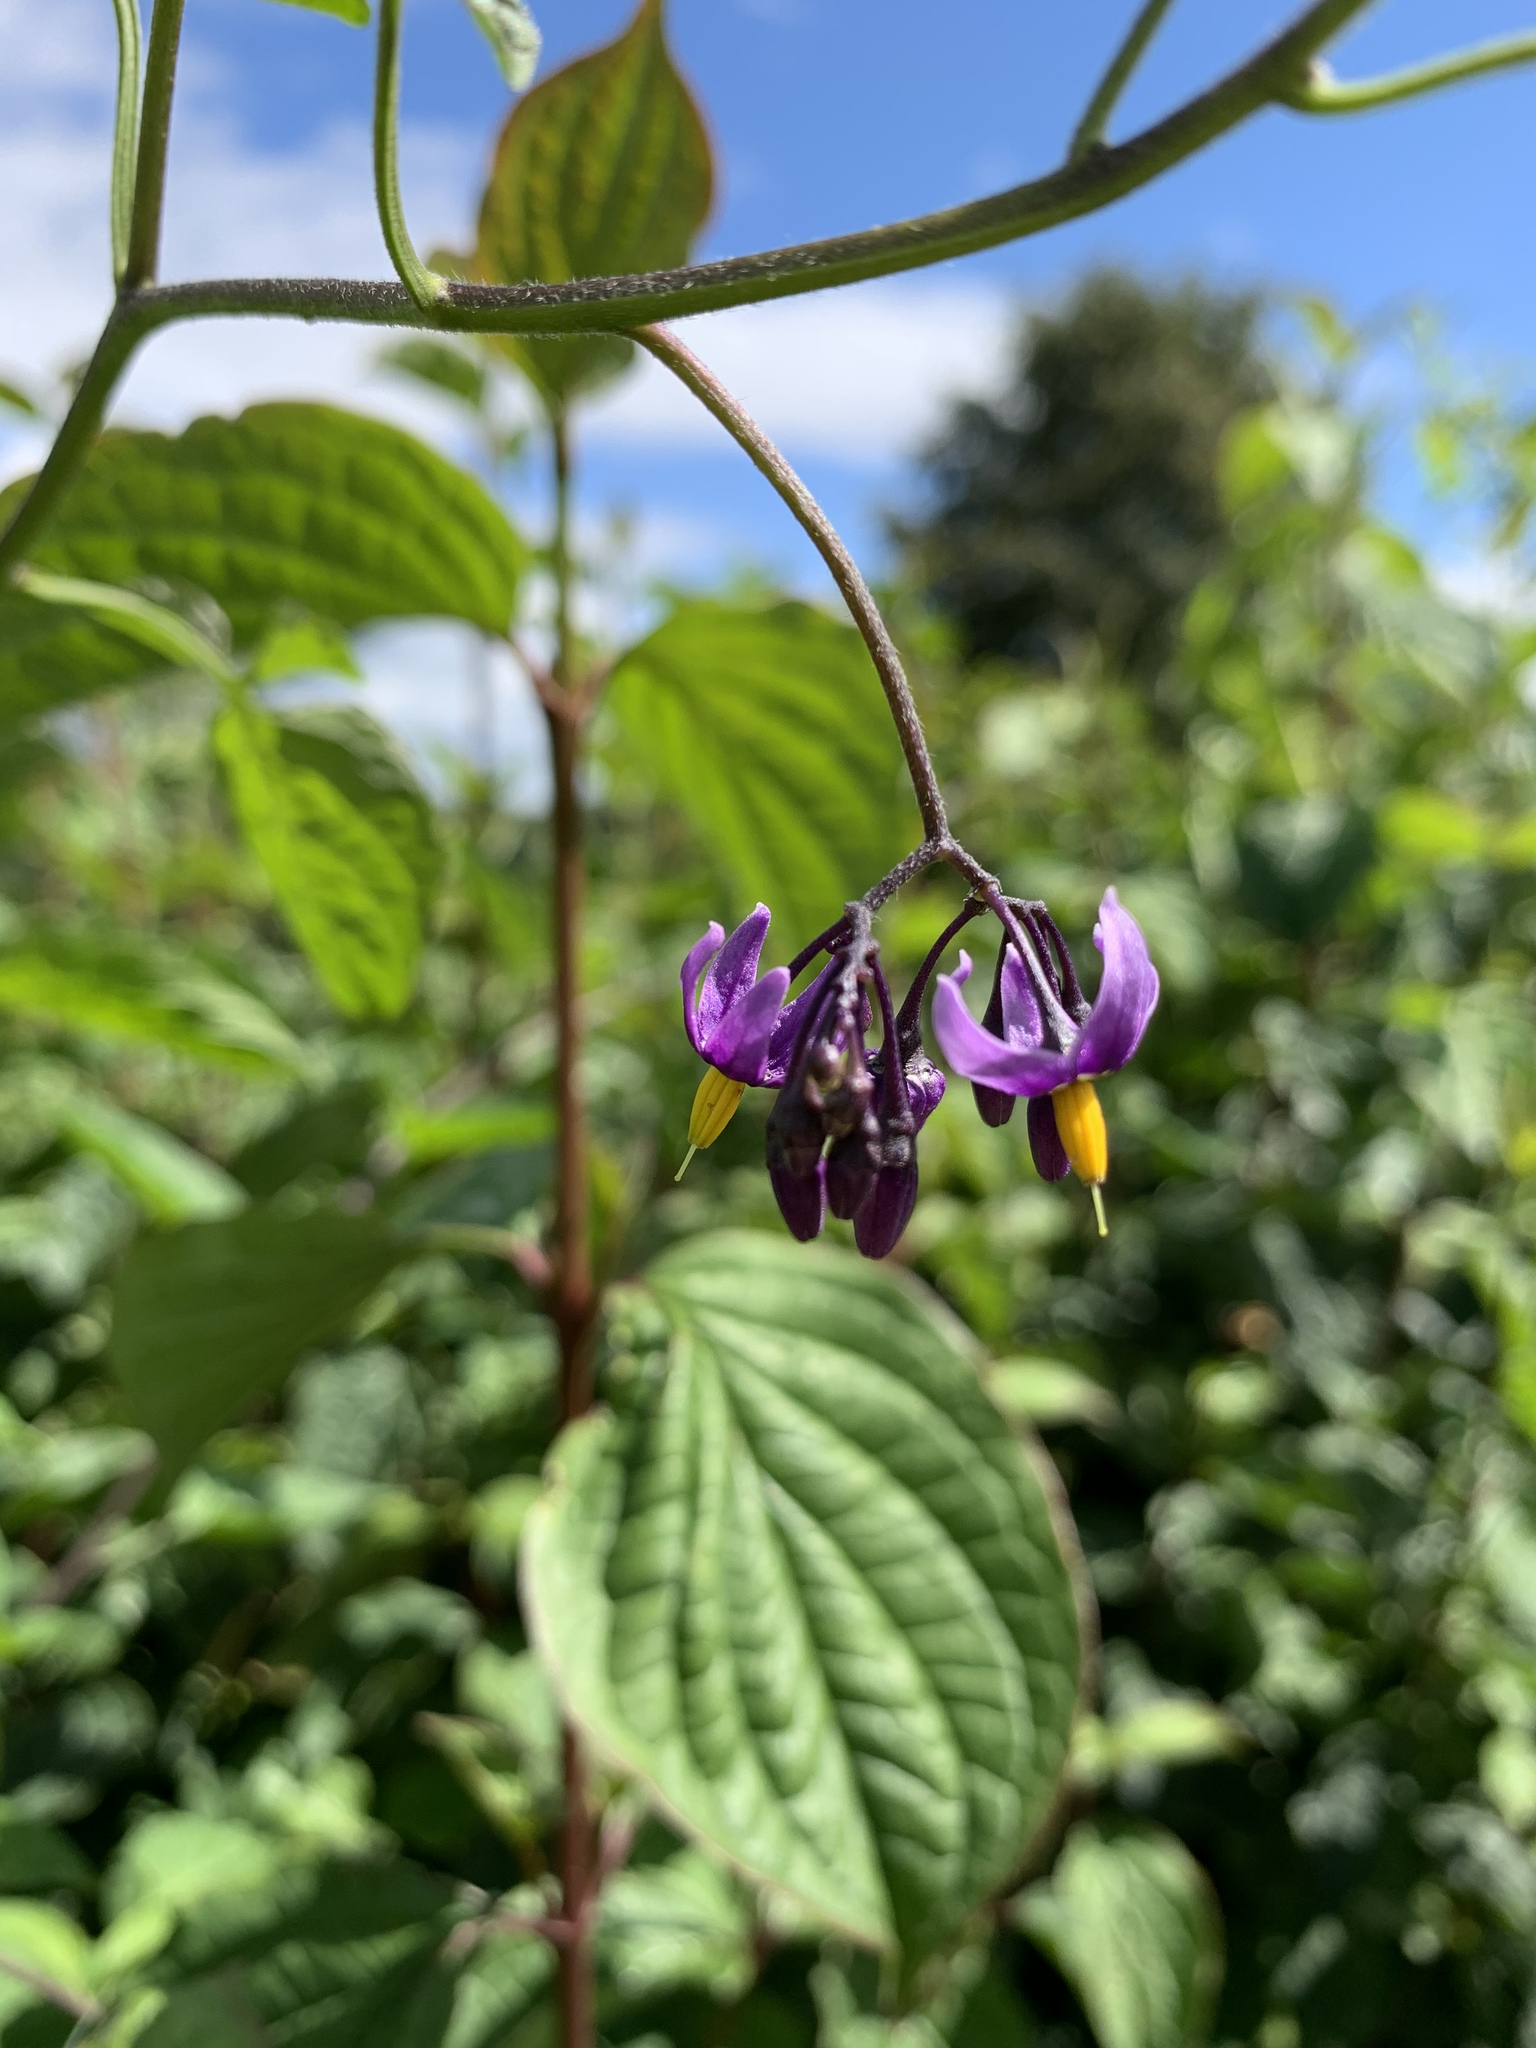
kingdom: Plantae
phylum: Tracheophyta
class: Magnoliopsida
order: Solanales
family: Solanaceae
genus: Solanum
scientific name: Solanum dulcamara
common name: Climbing nightshade
